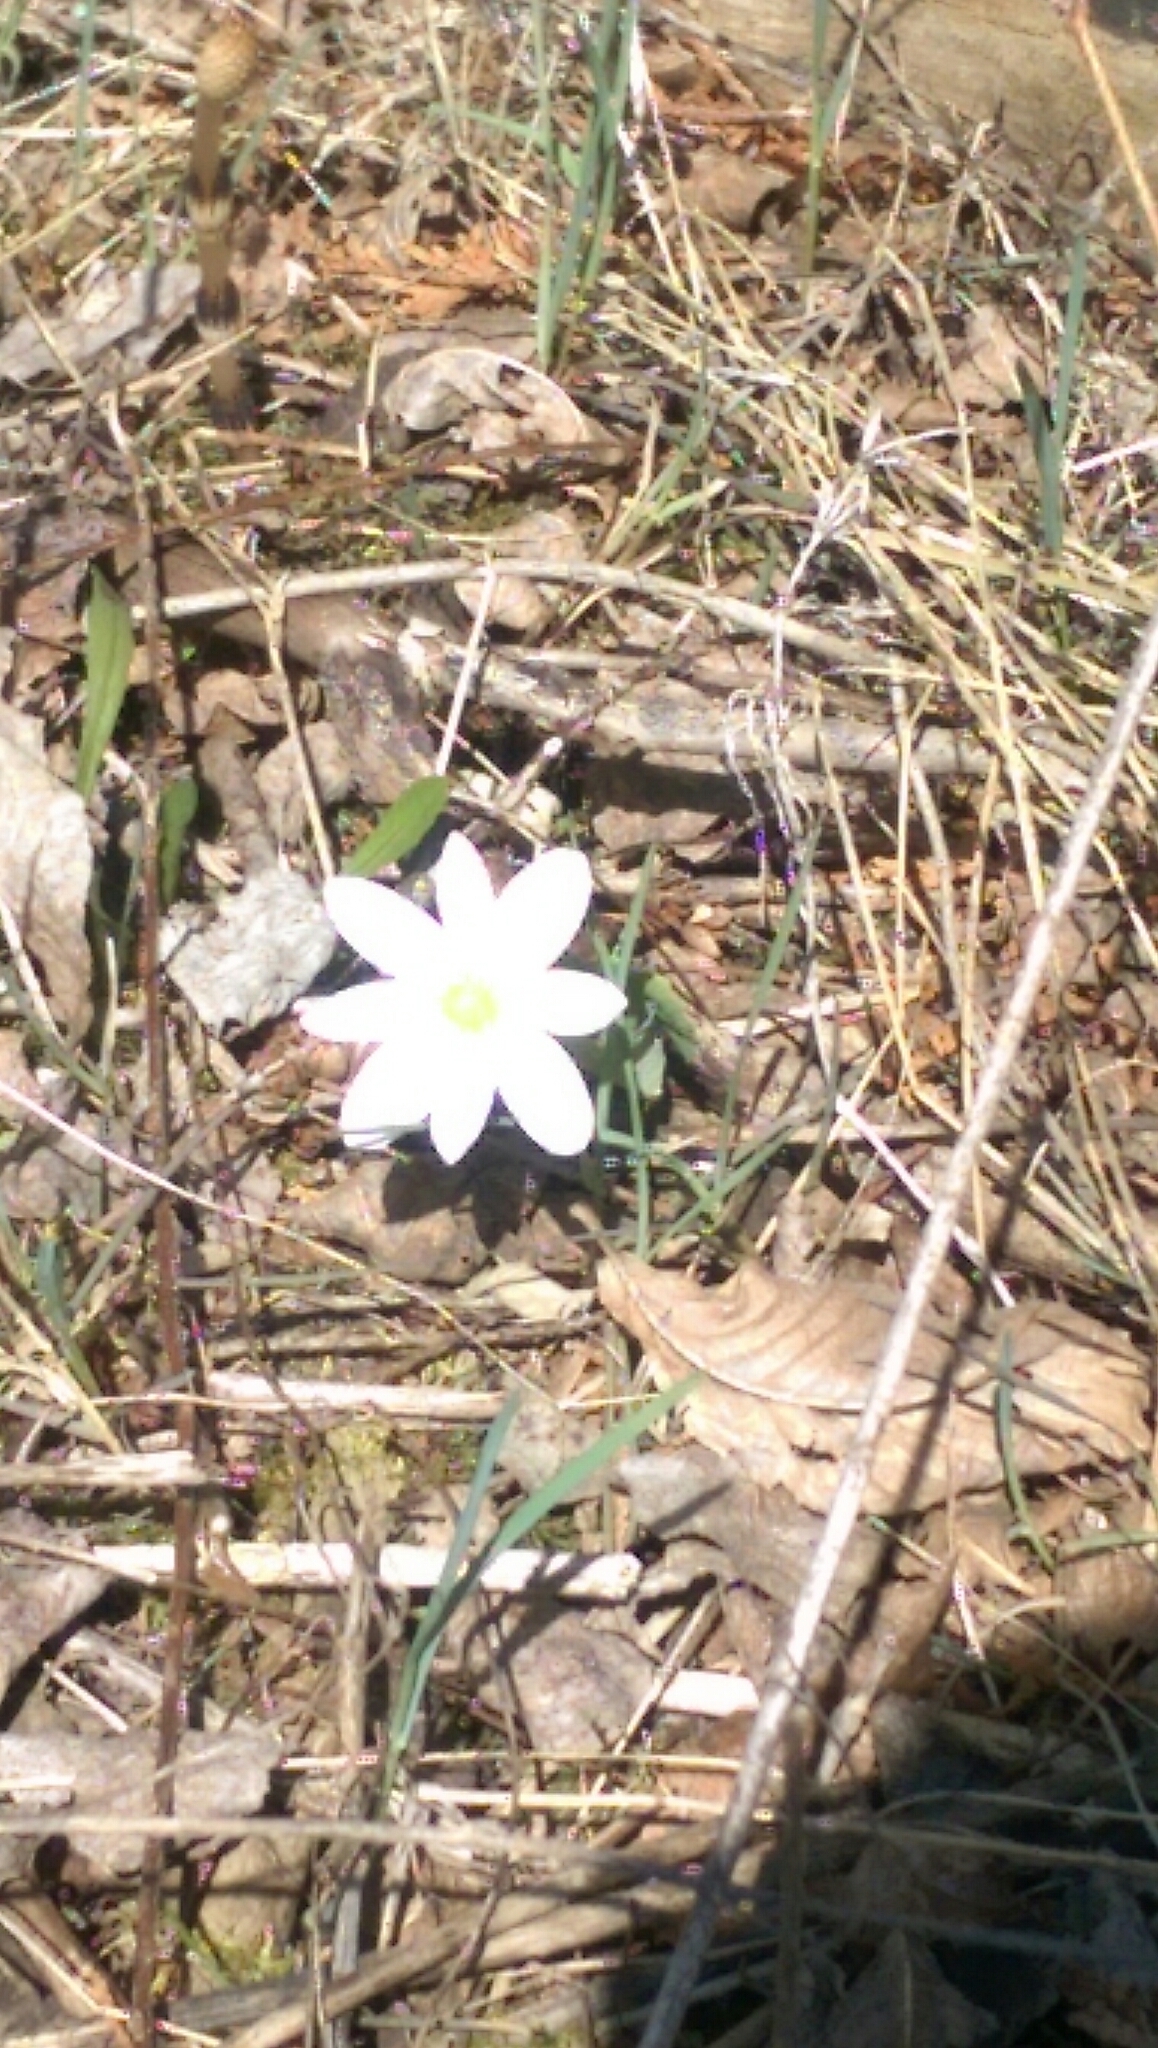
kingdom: Plantae
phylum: Tracheophyta
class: Magnoliopsida
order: Ranunculales
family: Papaveraceae
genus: Sanguinaria
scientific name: Sanguinaria canadensis
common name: Bloodroot
